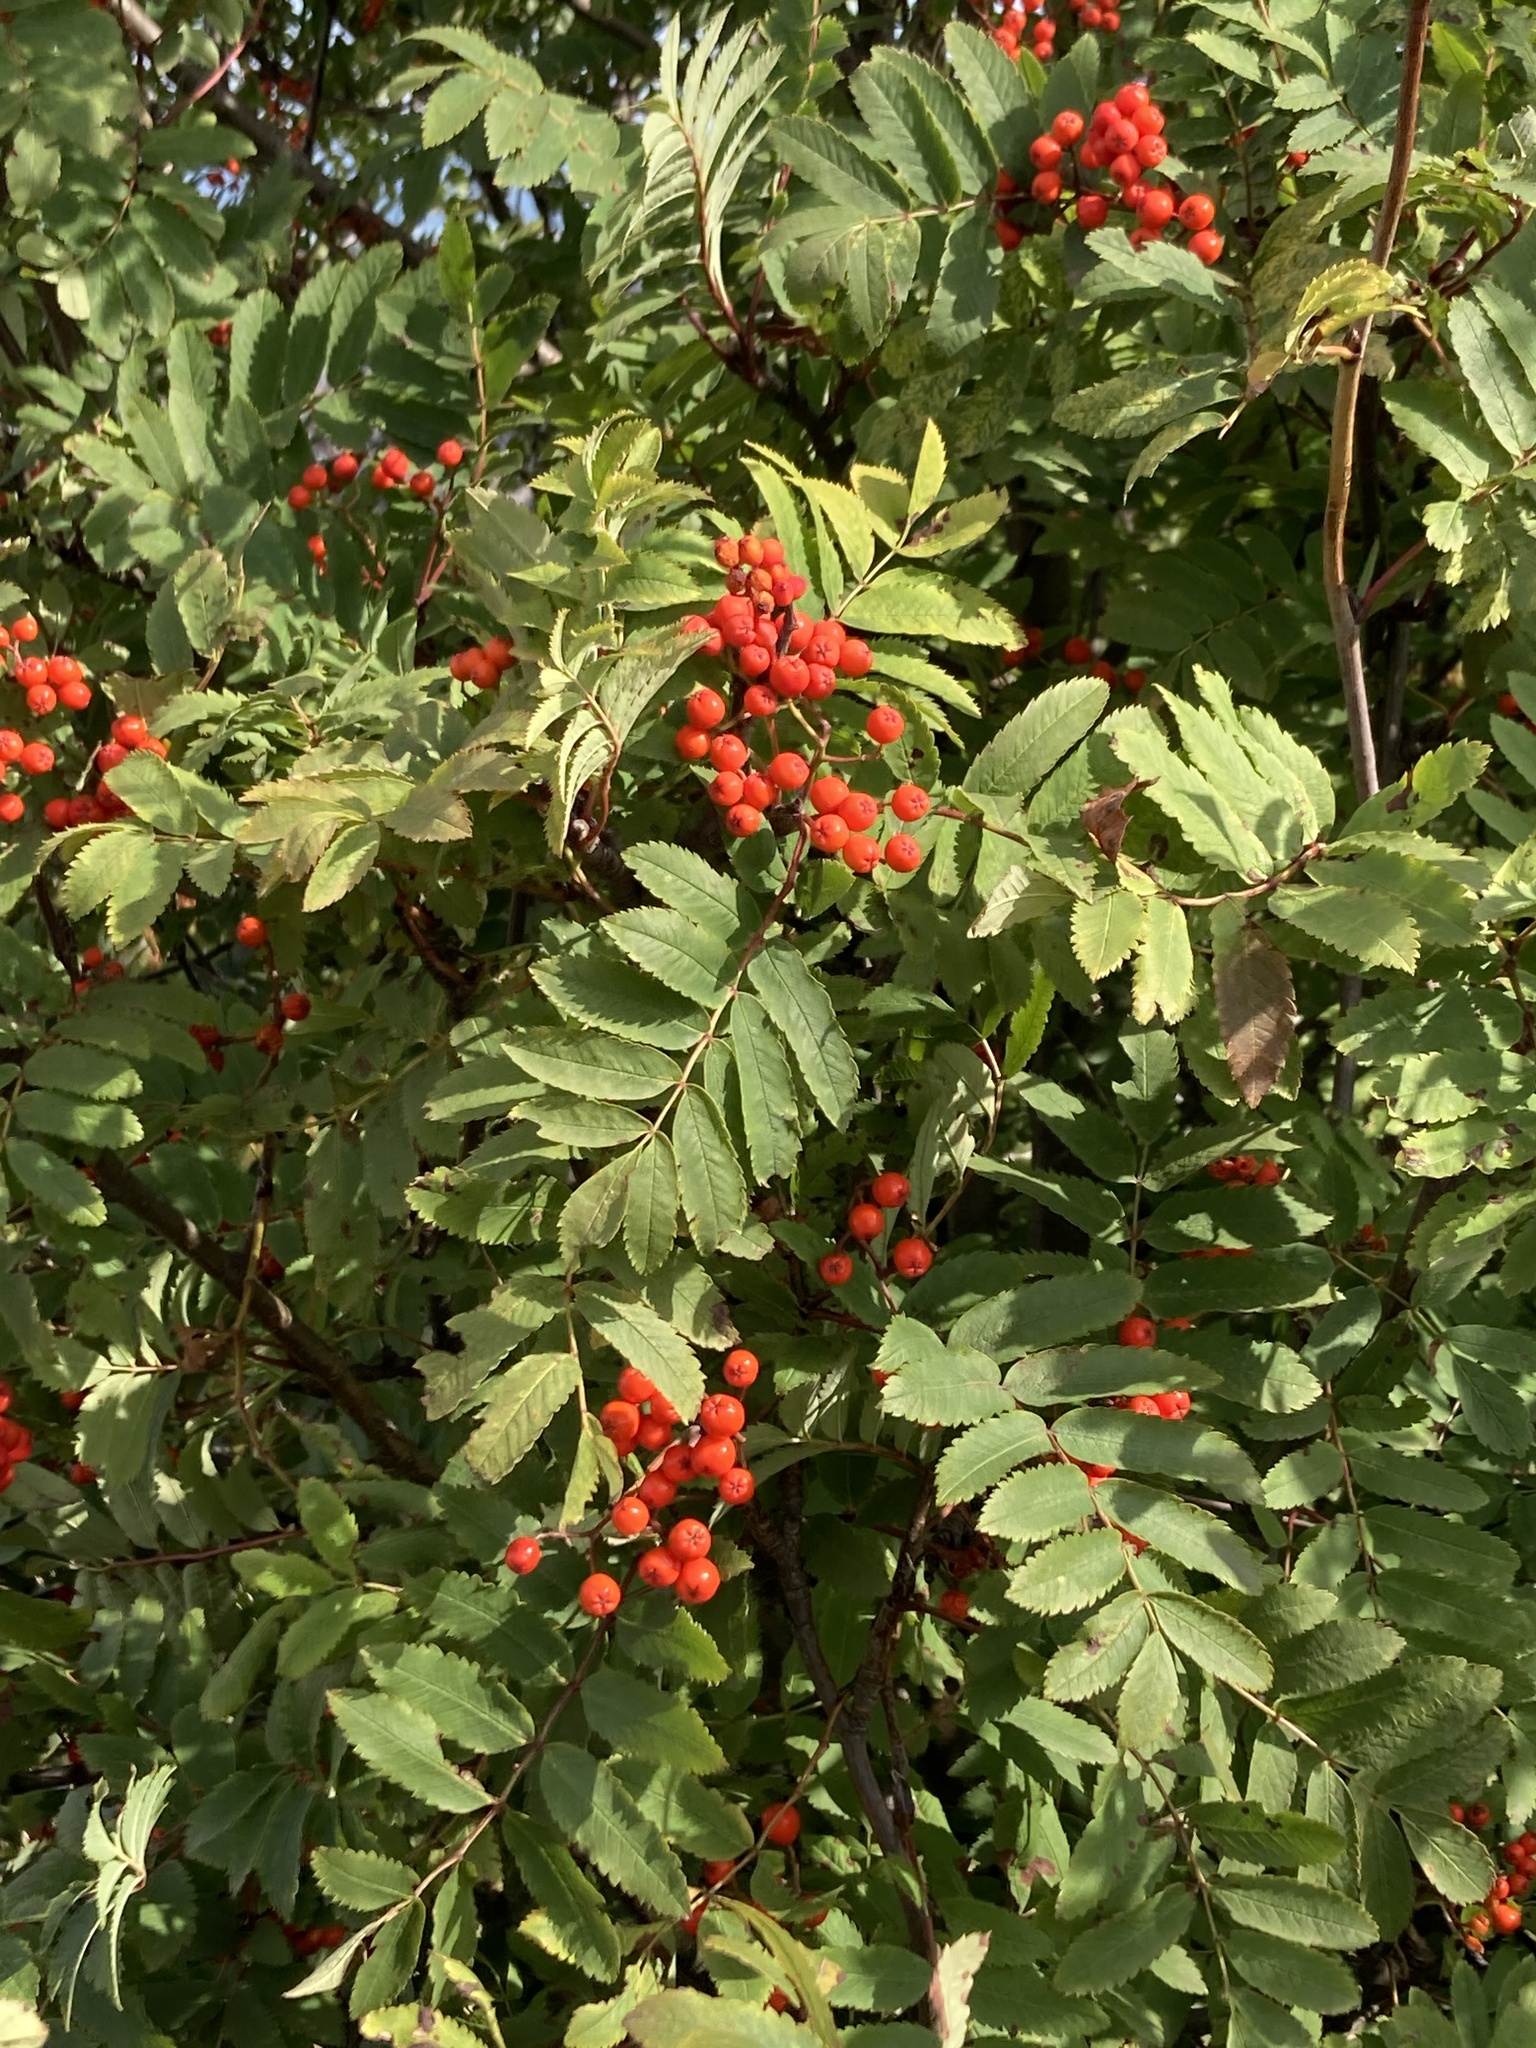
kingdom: Plantae
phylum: Tracheophyta
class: Magnoliopsida
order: Rosales
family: Rosaceae
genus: Sorbus
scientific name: Sorbus aucuparia
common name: Rowan
